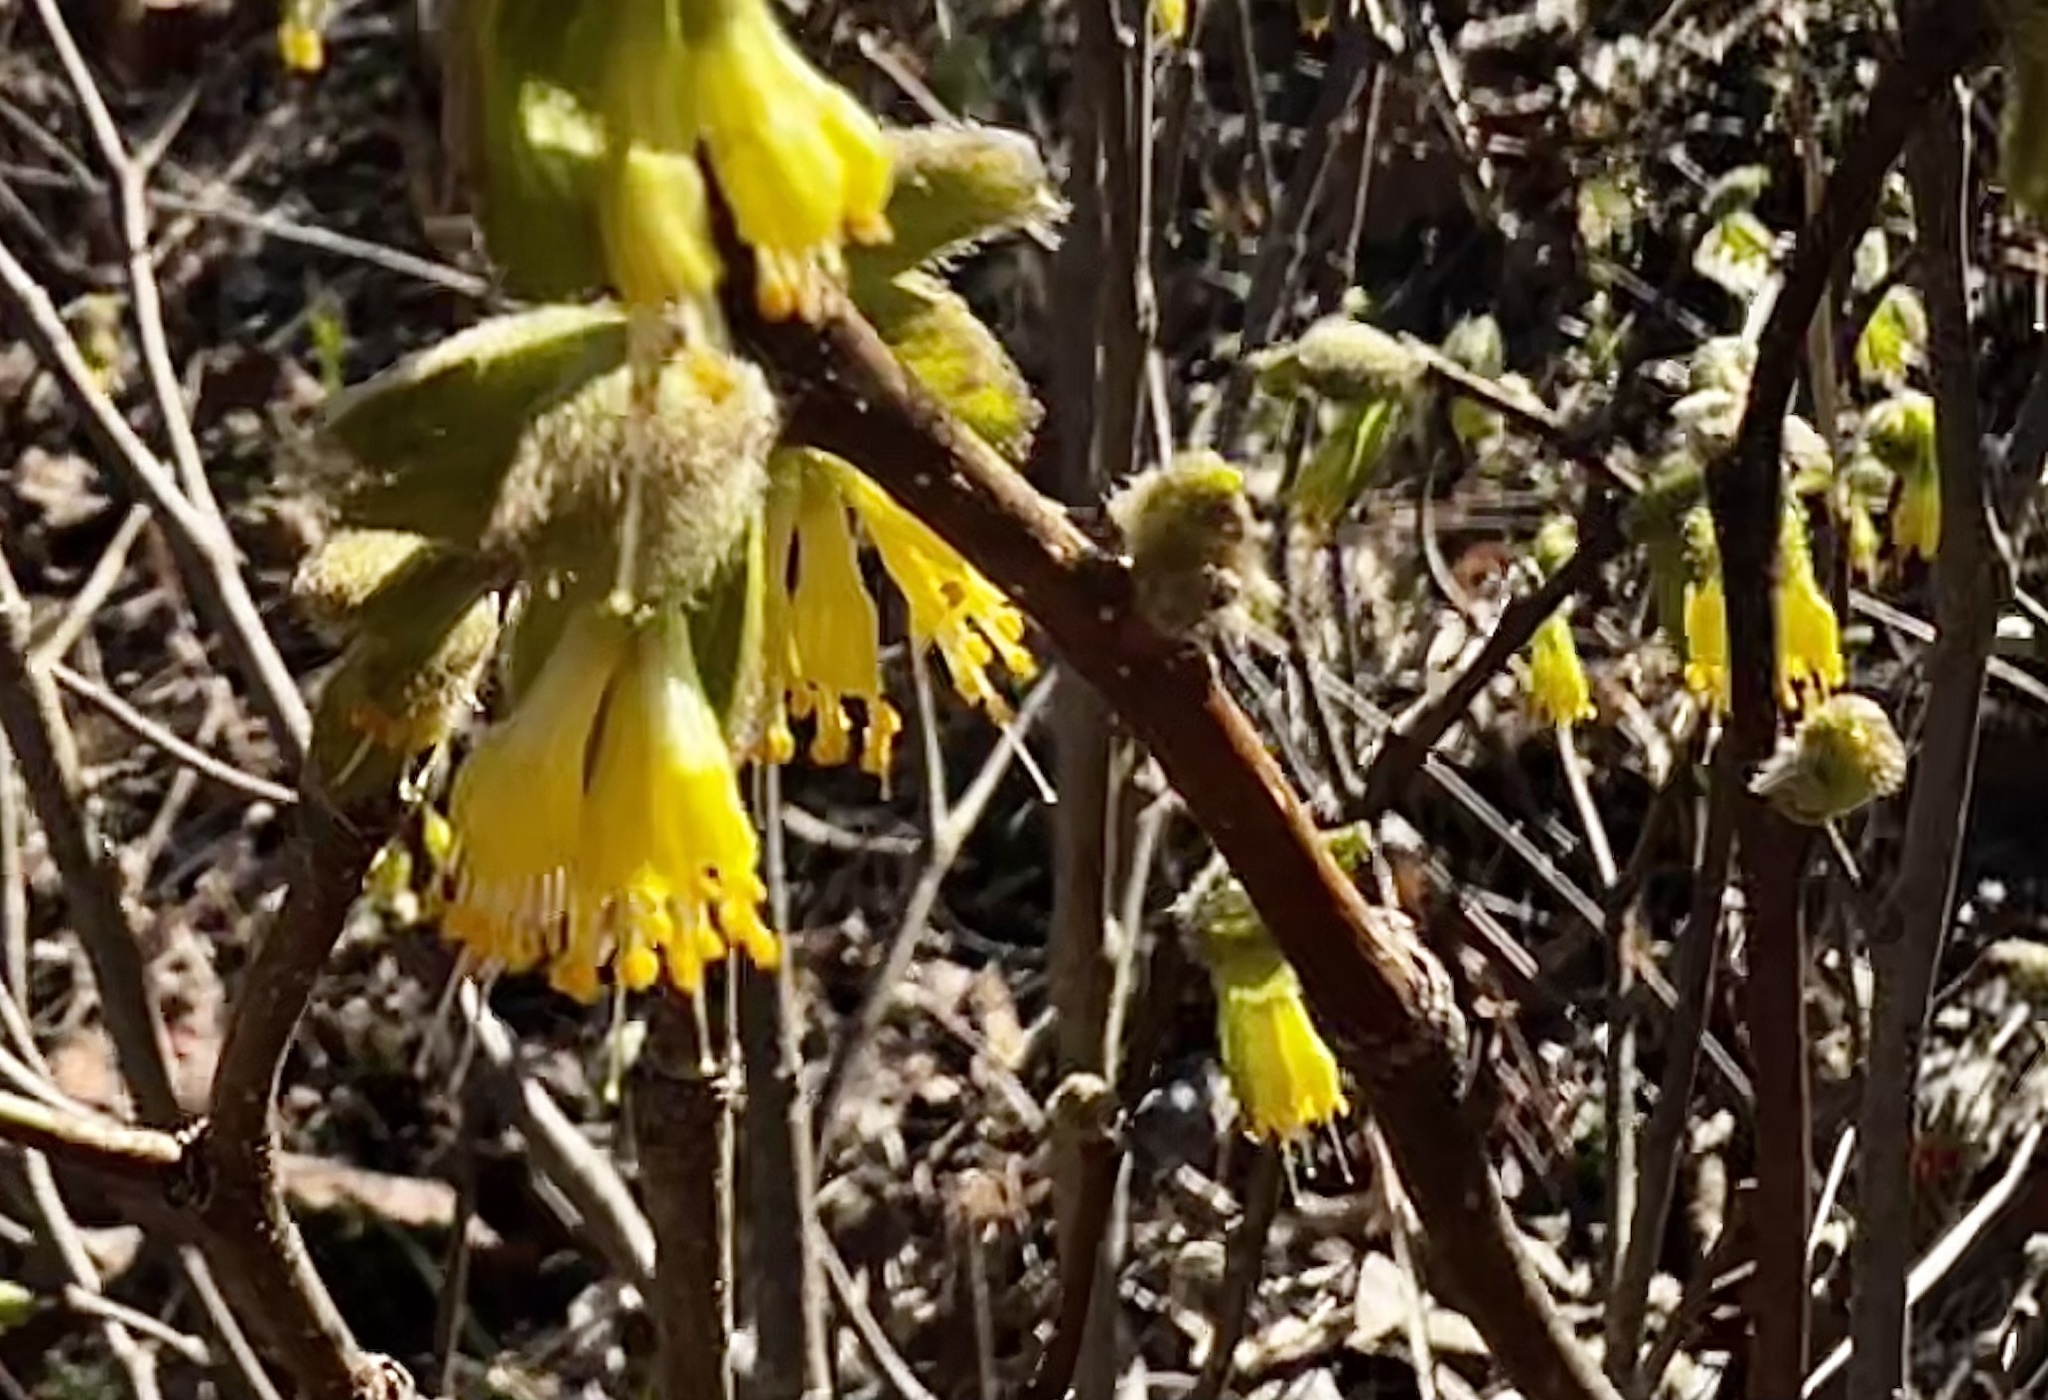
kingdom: Plantae
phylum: Tracheophyta
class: Magnoliopsida
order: Malvales
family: Thymelaeaceae
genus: Dirca
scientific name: Dirca palustris
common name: Leatherwood
